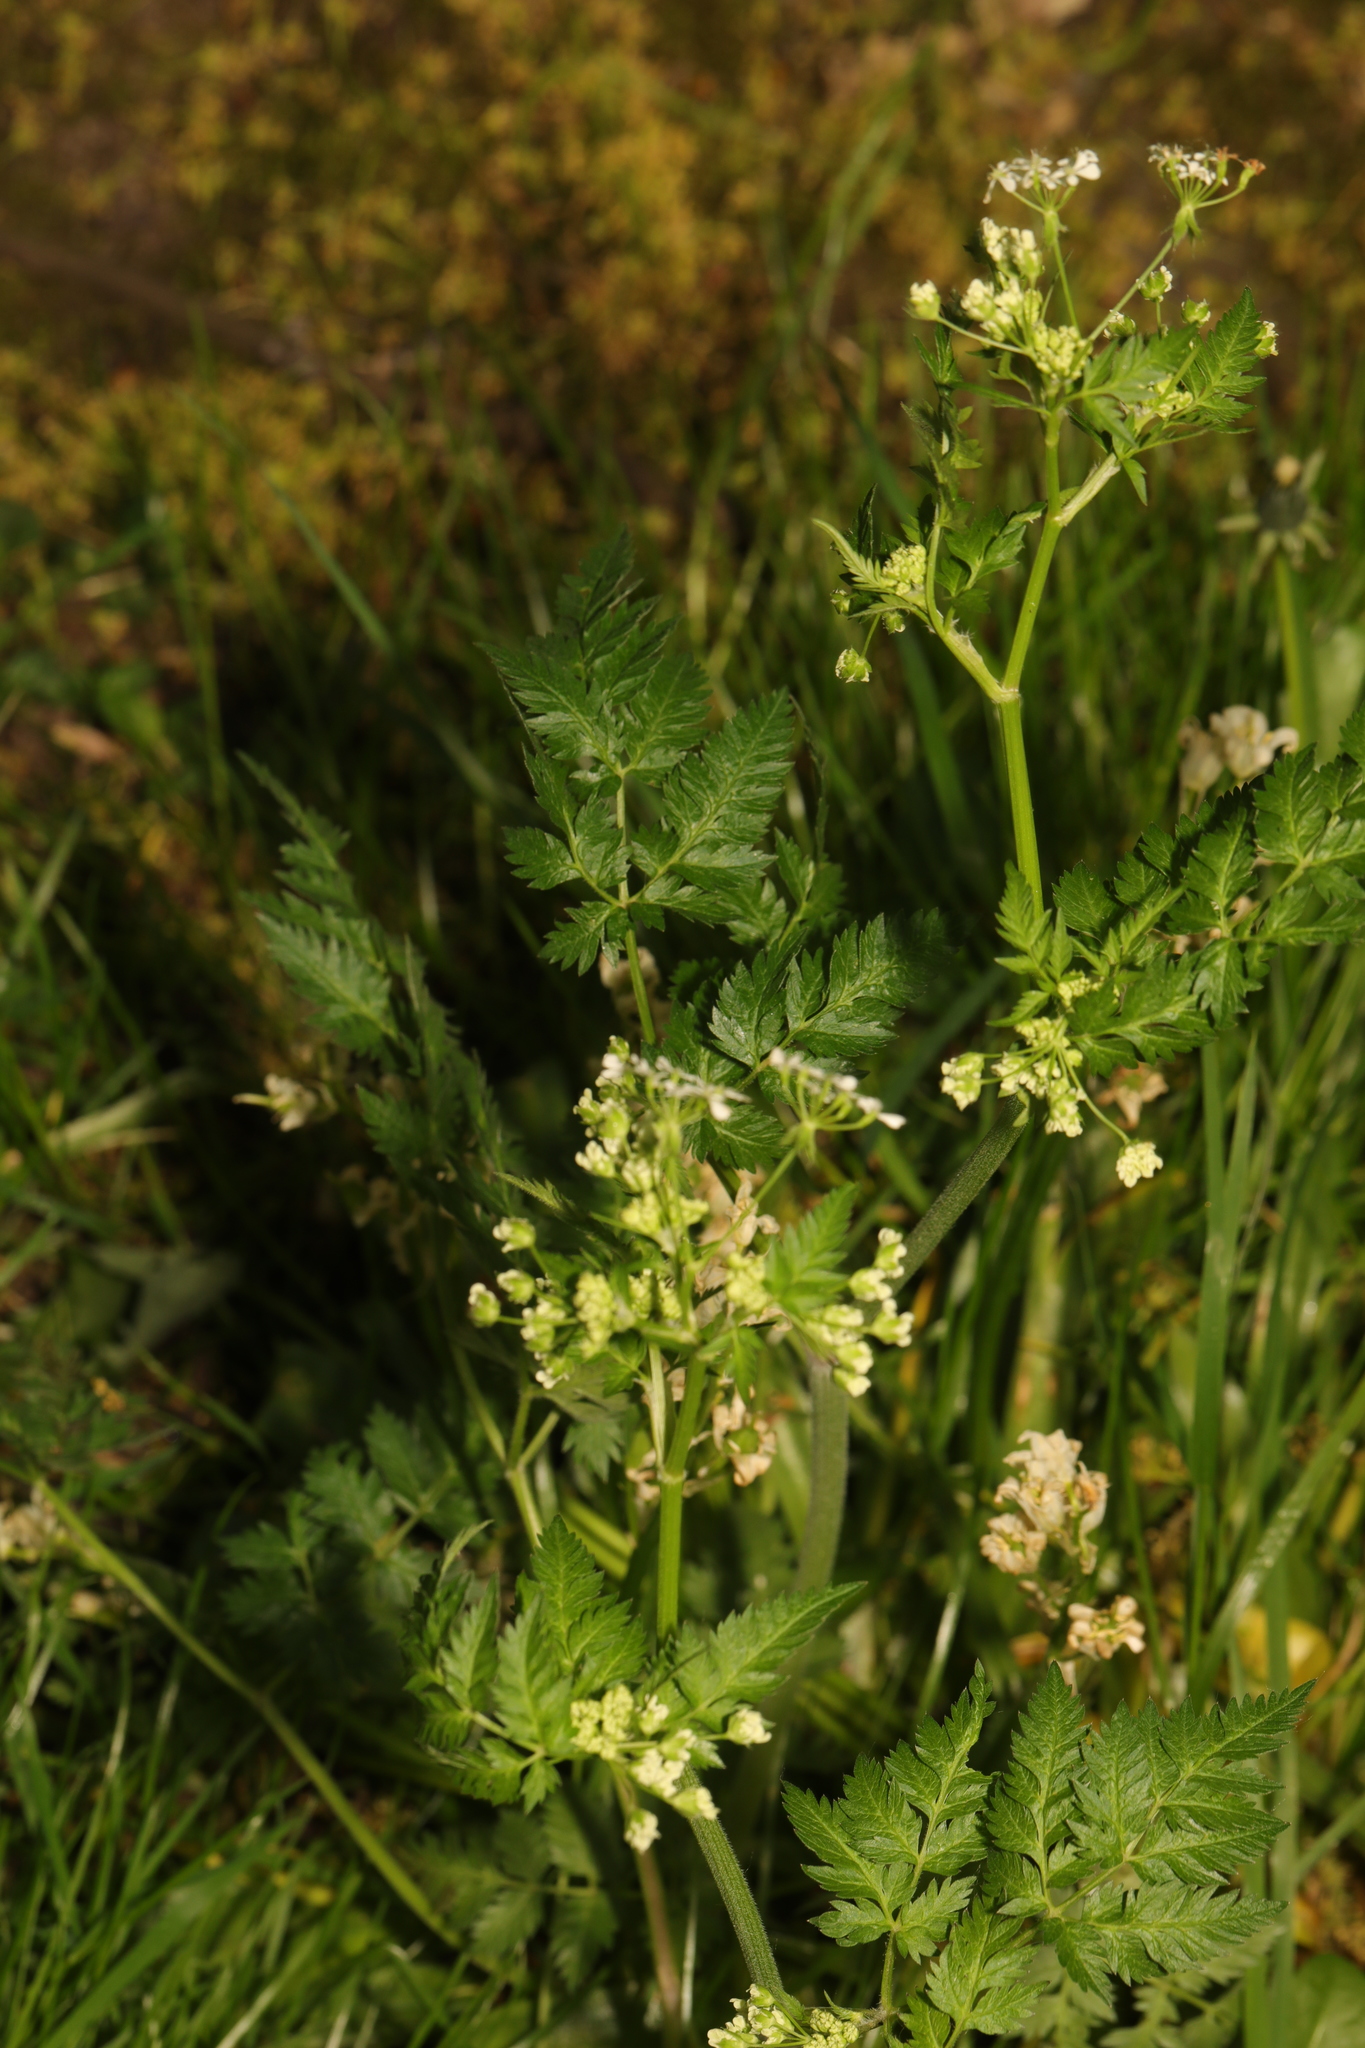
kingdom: Plantae
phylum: Tracheophyta
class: Magnoliopsida
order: Apiales
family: Apiaceae
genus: Anthriscus
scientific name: Anthriscus sylvestris
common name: Cow parsley
